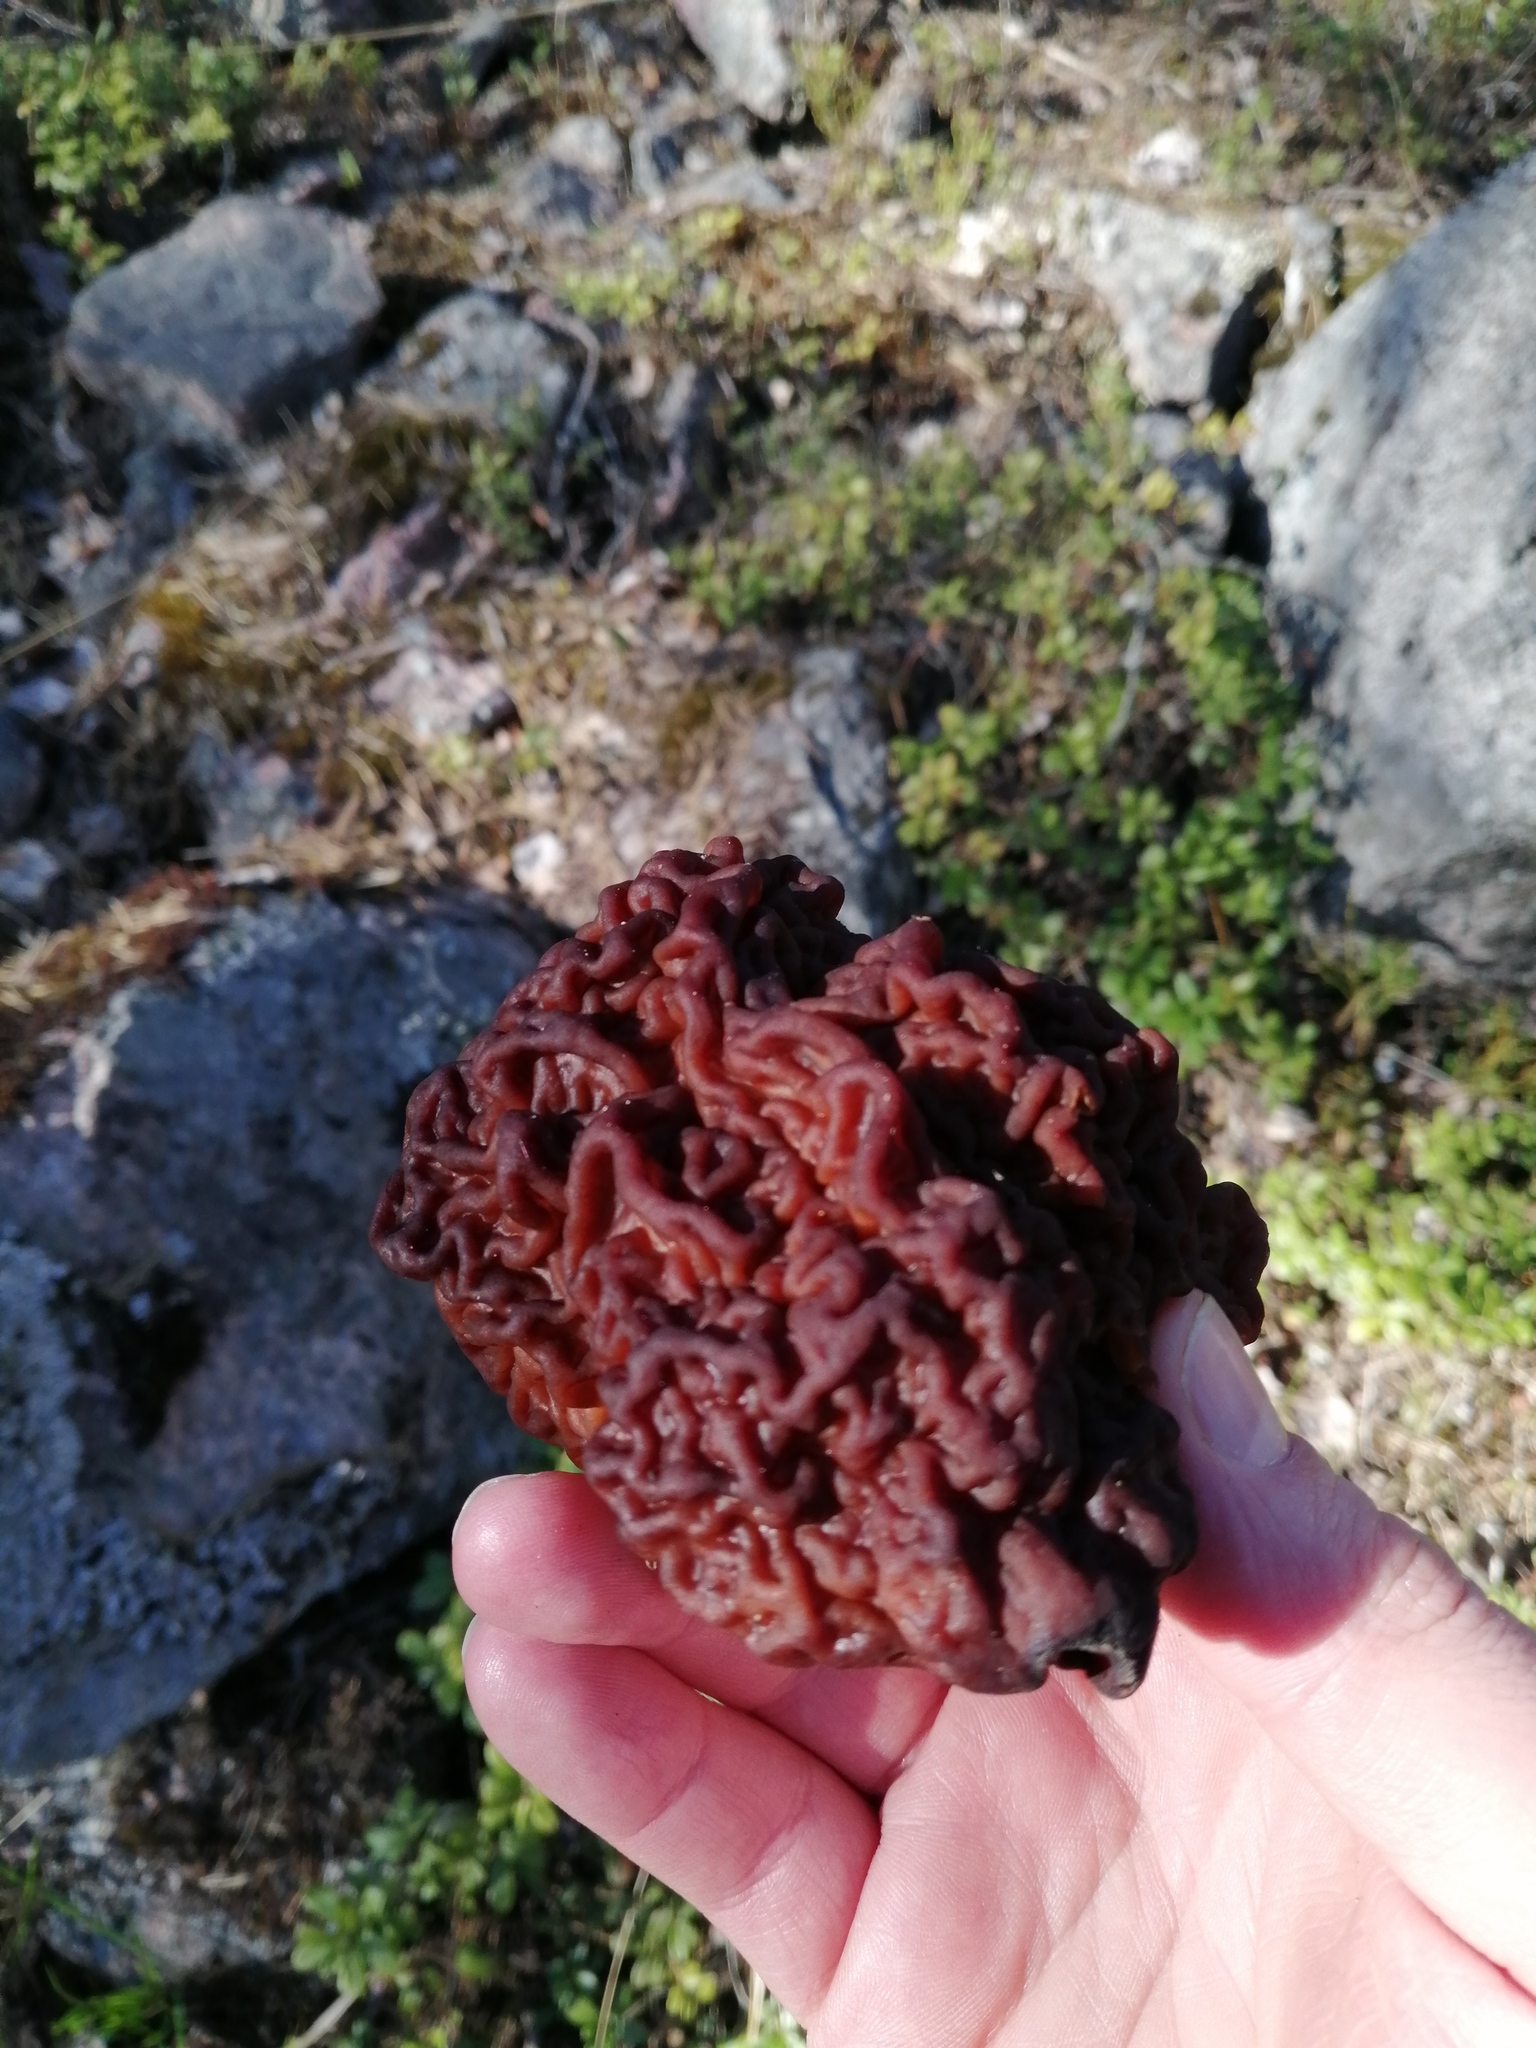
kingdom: Fungi
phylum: Ascomycota
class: Pezizomycetes
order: Pezizales
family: Discinaceae
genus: Gyromitra
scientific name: Gyromitra esculenta
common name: False morel
